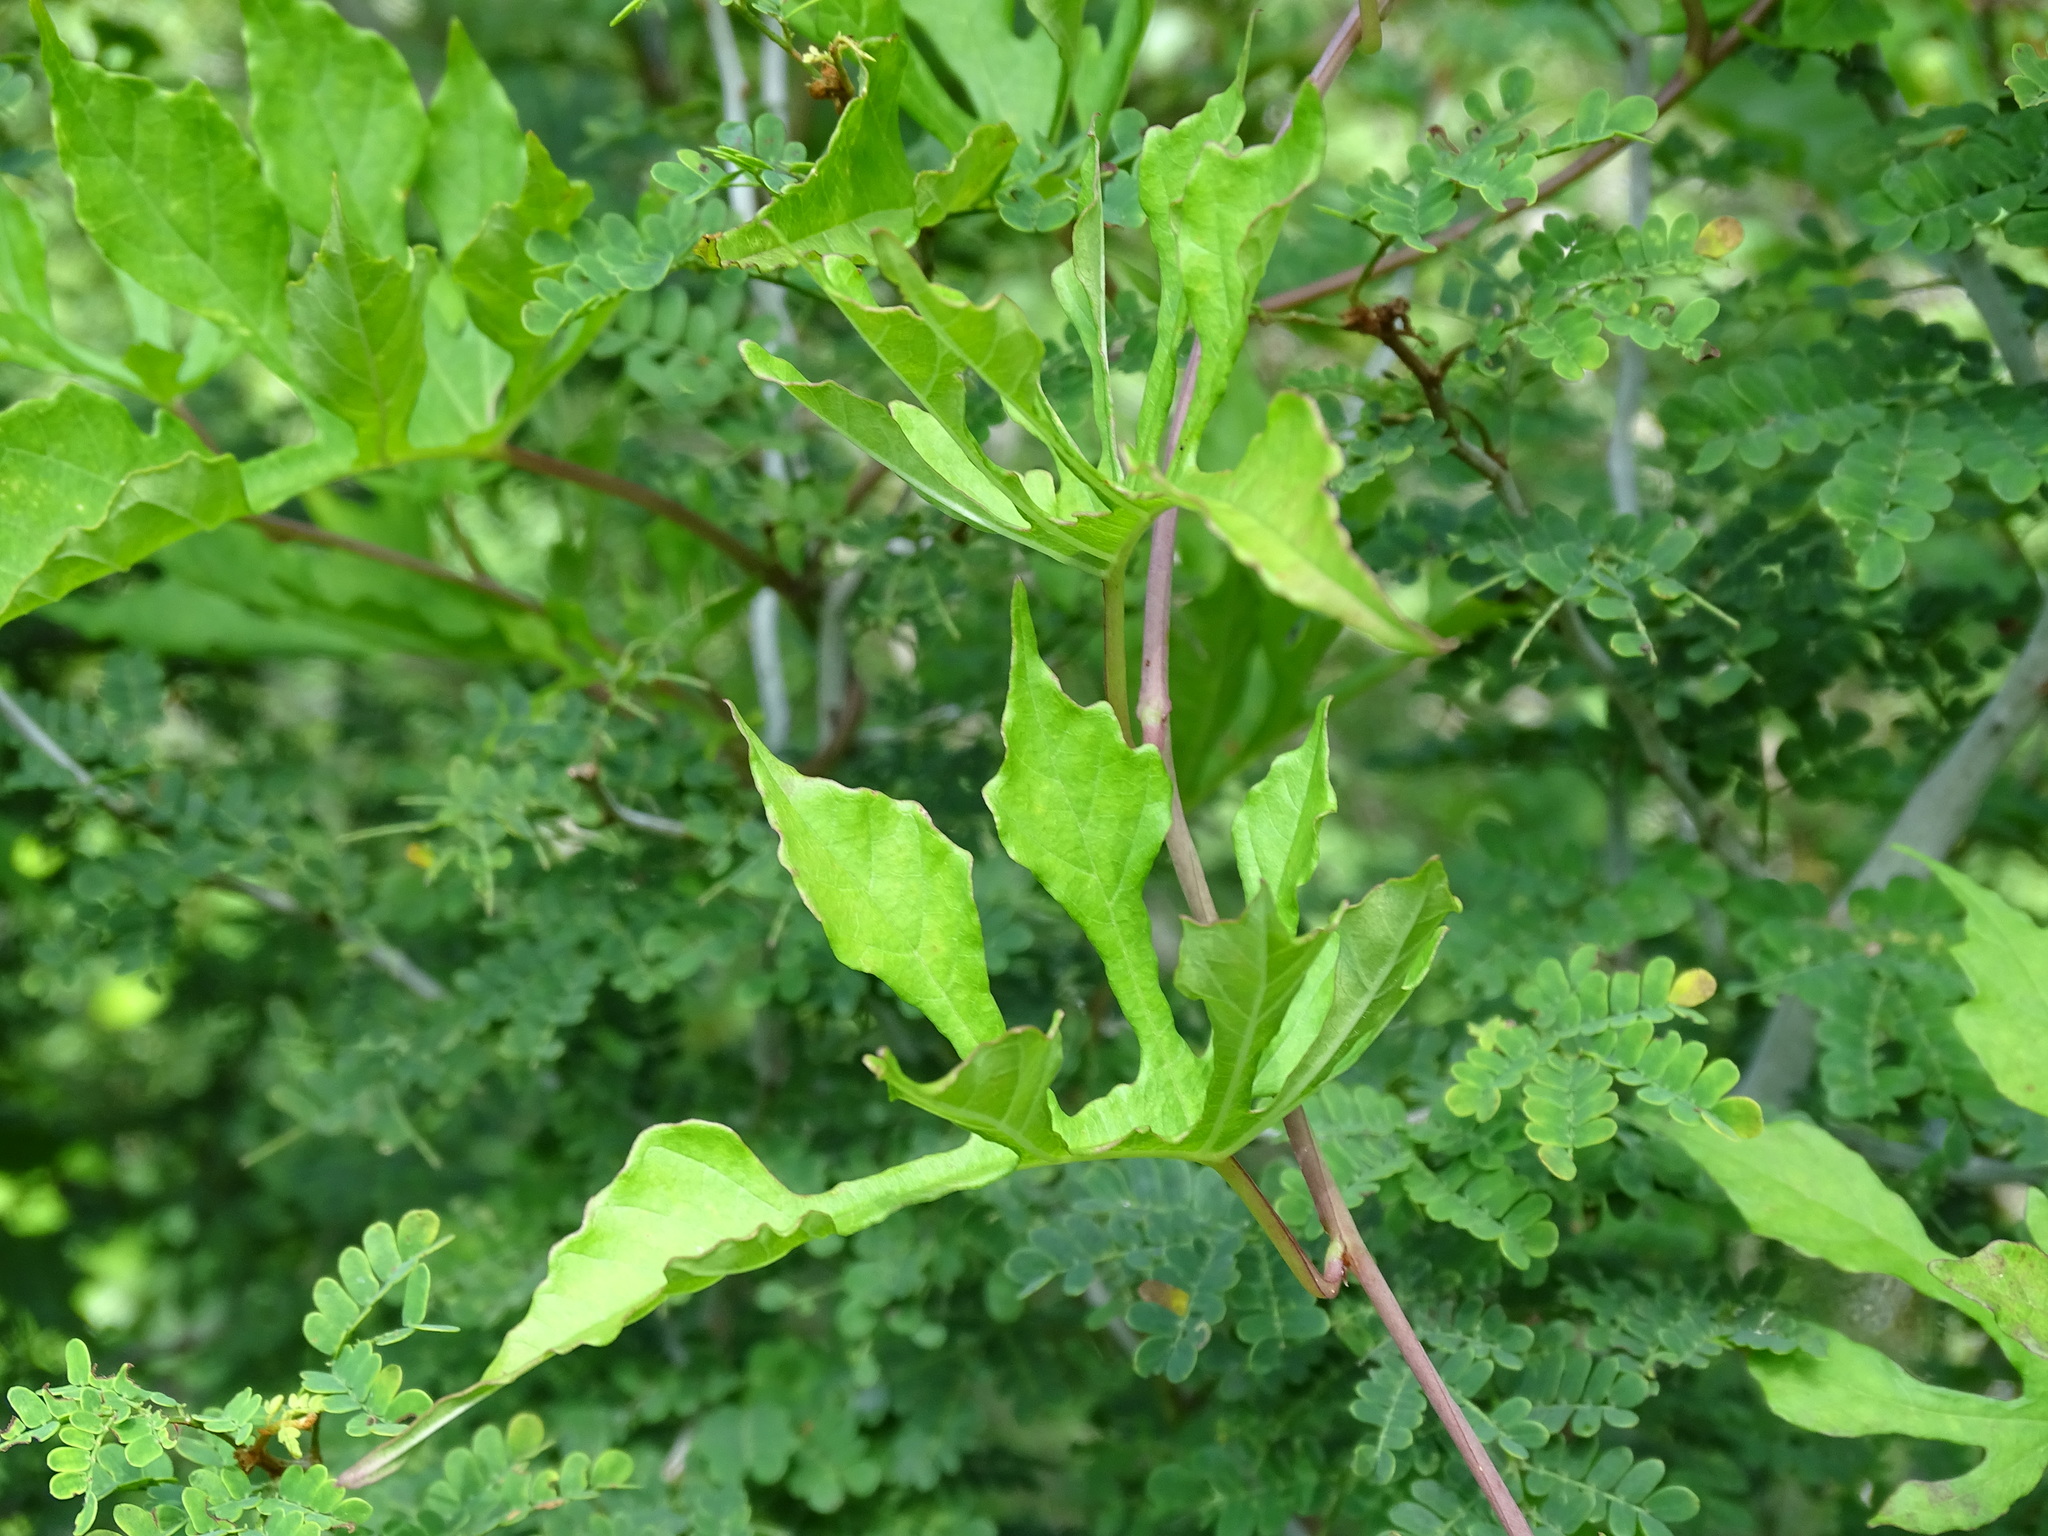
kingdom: Plantae
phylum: Tracheophyta
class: Magnoliopsida
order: Solanales
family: Convolvulaceae
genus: Operculina
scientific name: Operculina pinnatifida
